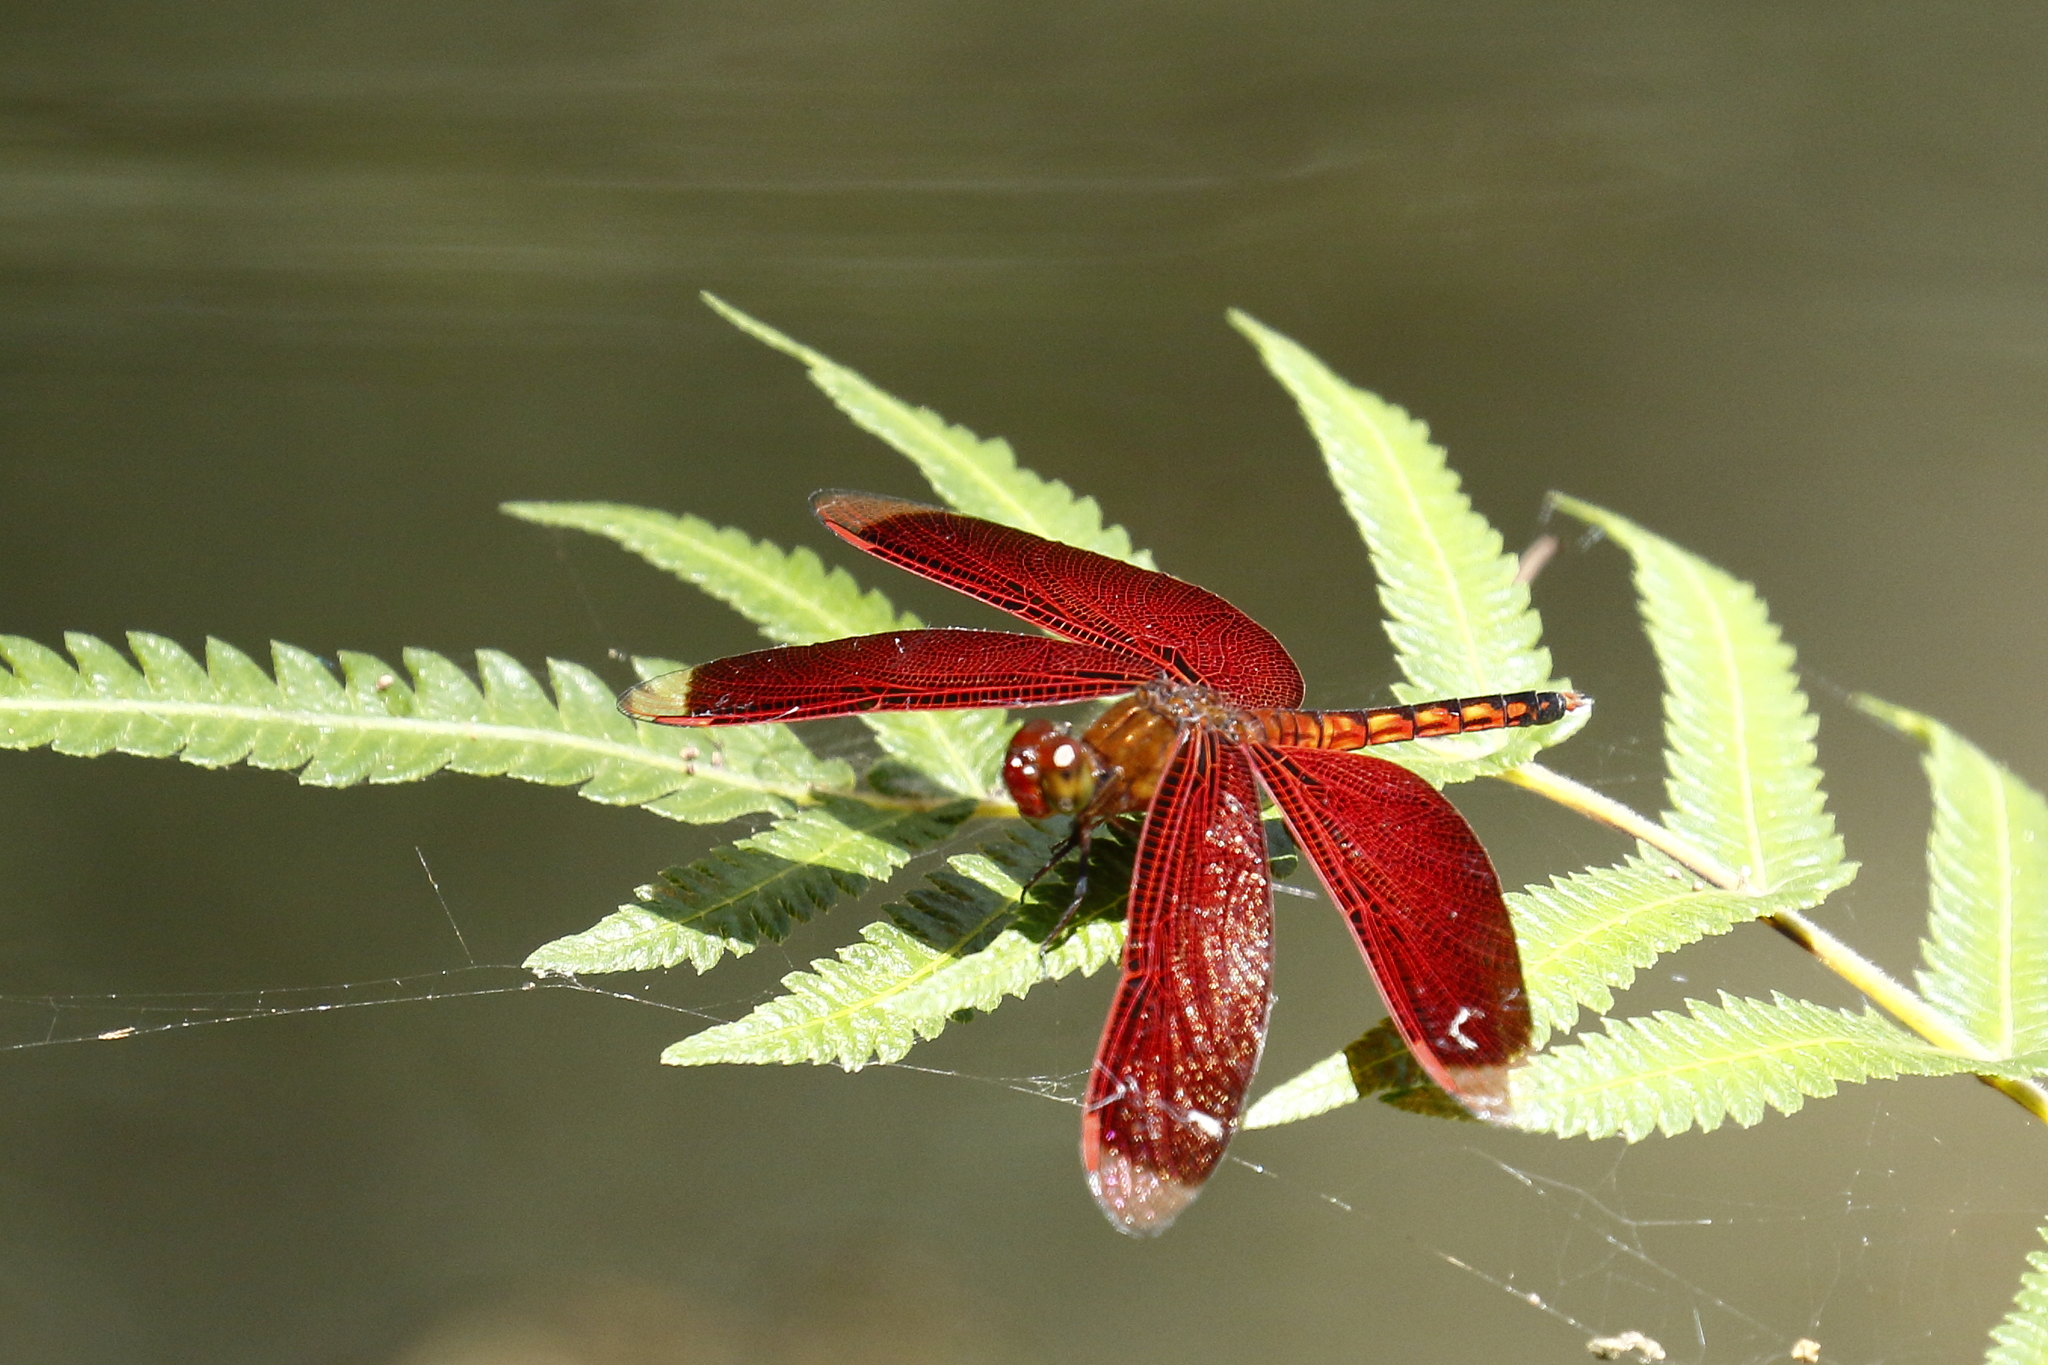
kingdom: Animalia
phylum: Arthropoda
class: Insecta
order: Odonata
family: Libellulidae
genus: Neurothemis
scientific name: Neurothemis taiwanensis
